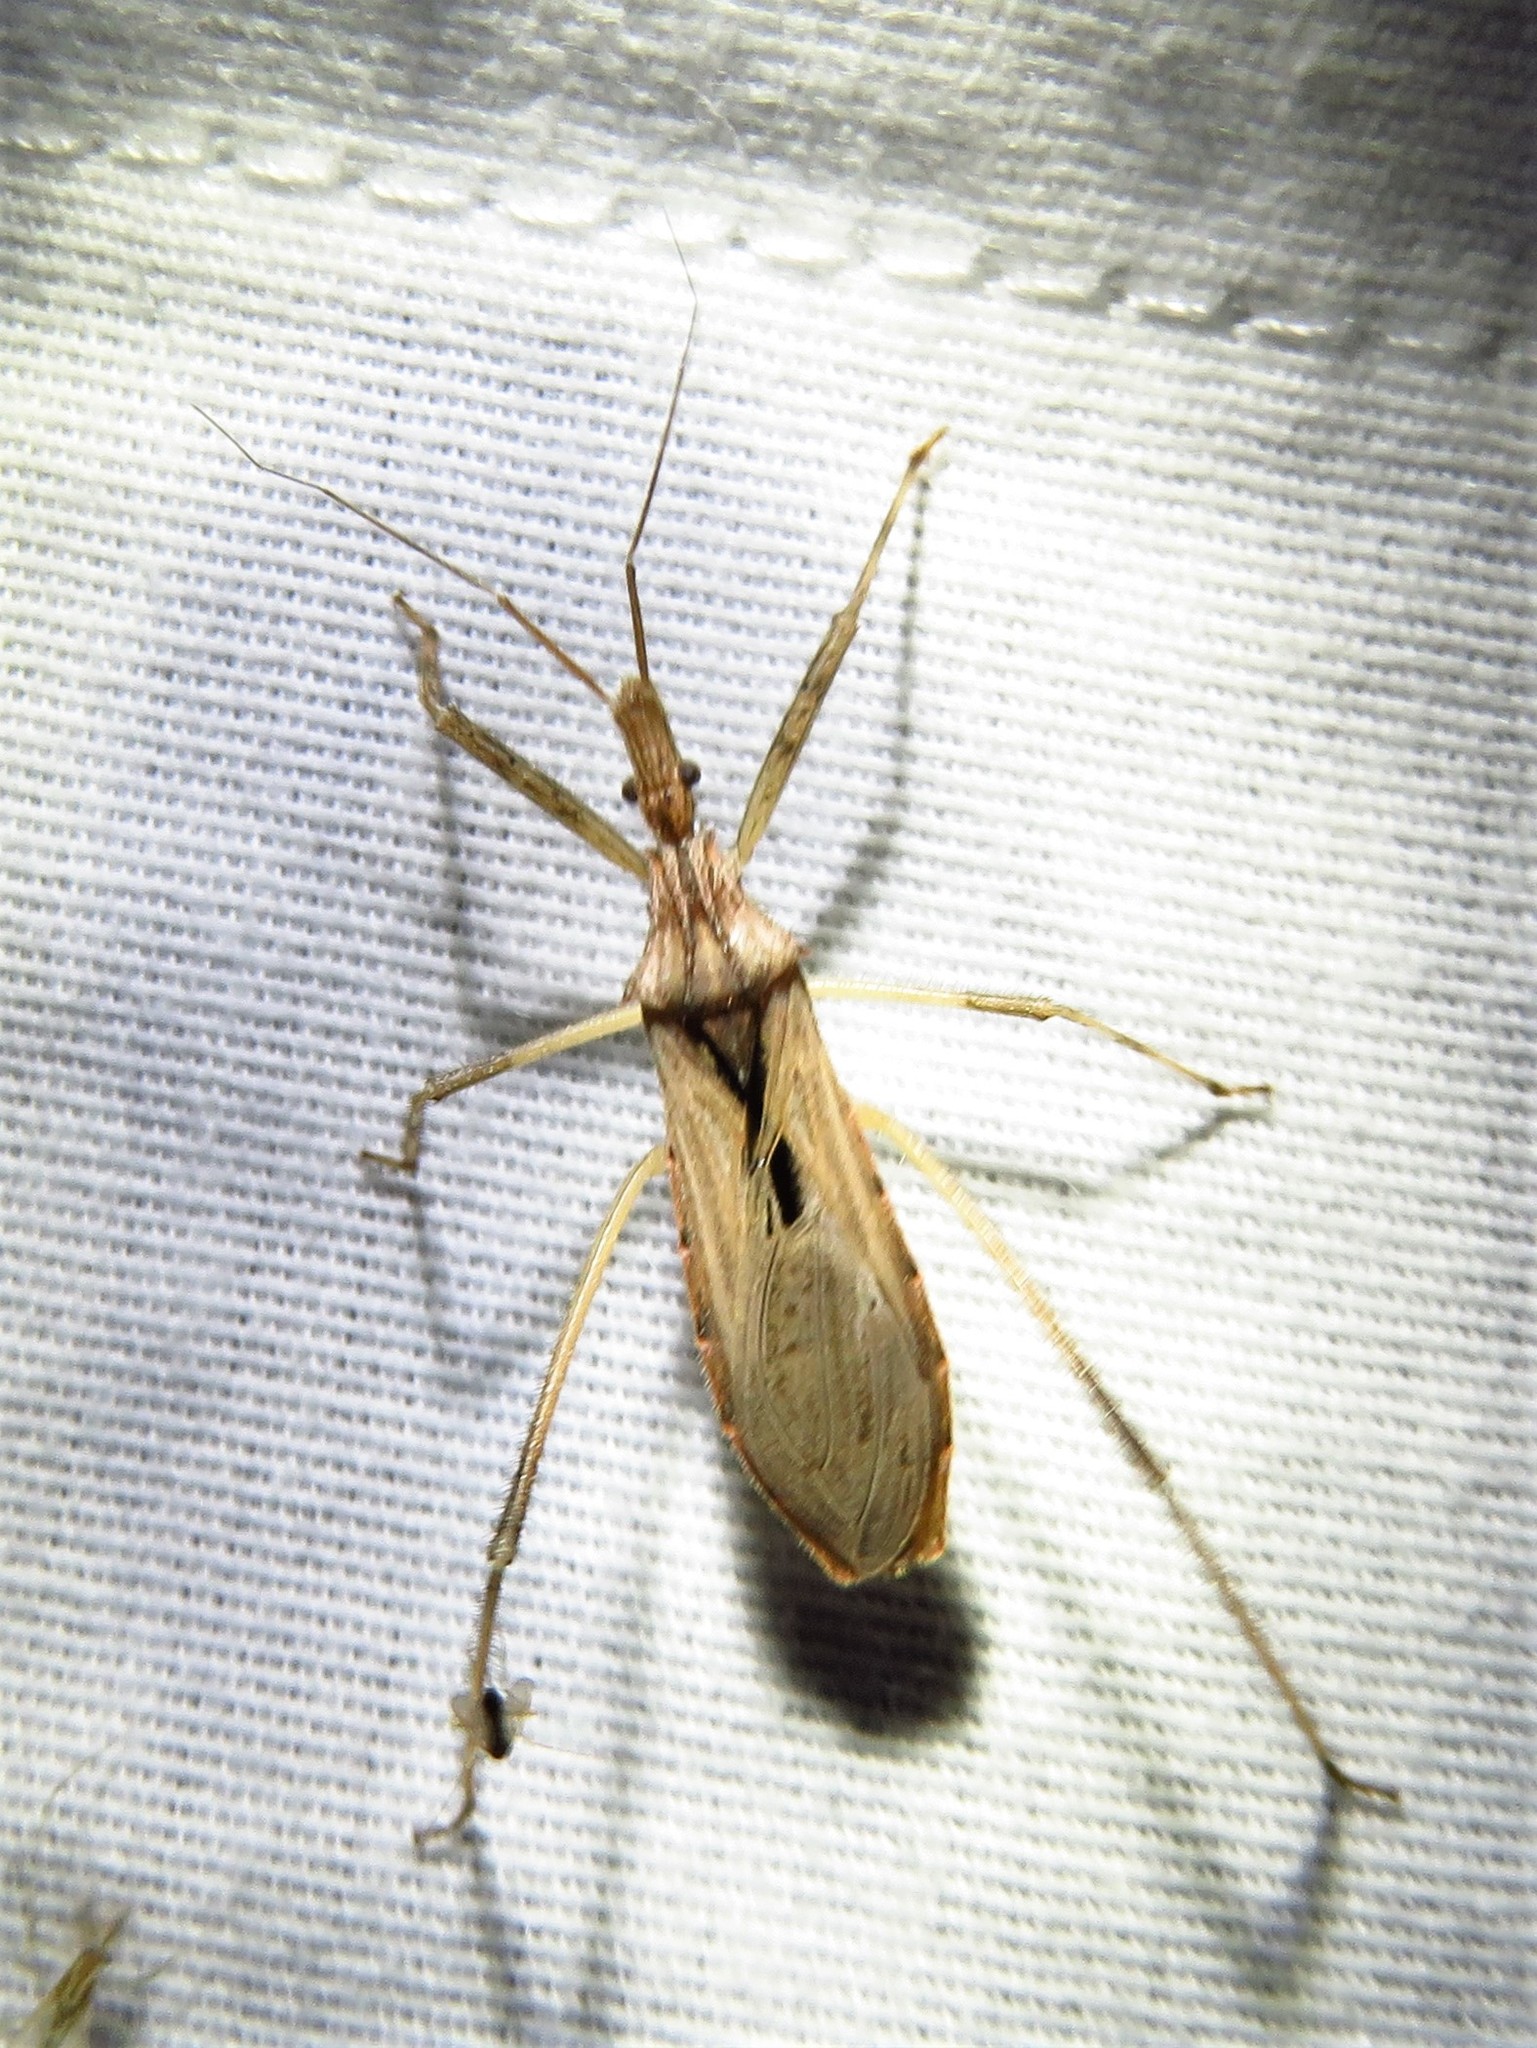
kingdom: Animalia
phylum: Arthropoda
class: Insecta
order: Hemiptera
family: Reduviidae
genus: Stenopoda
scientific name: Stenopoda spinulosa
